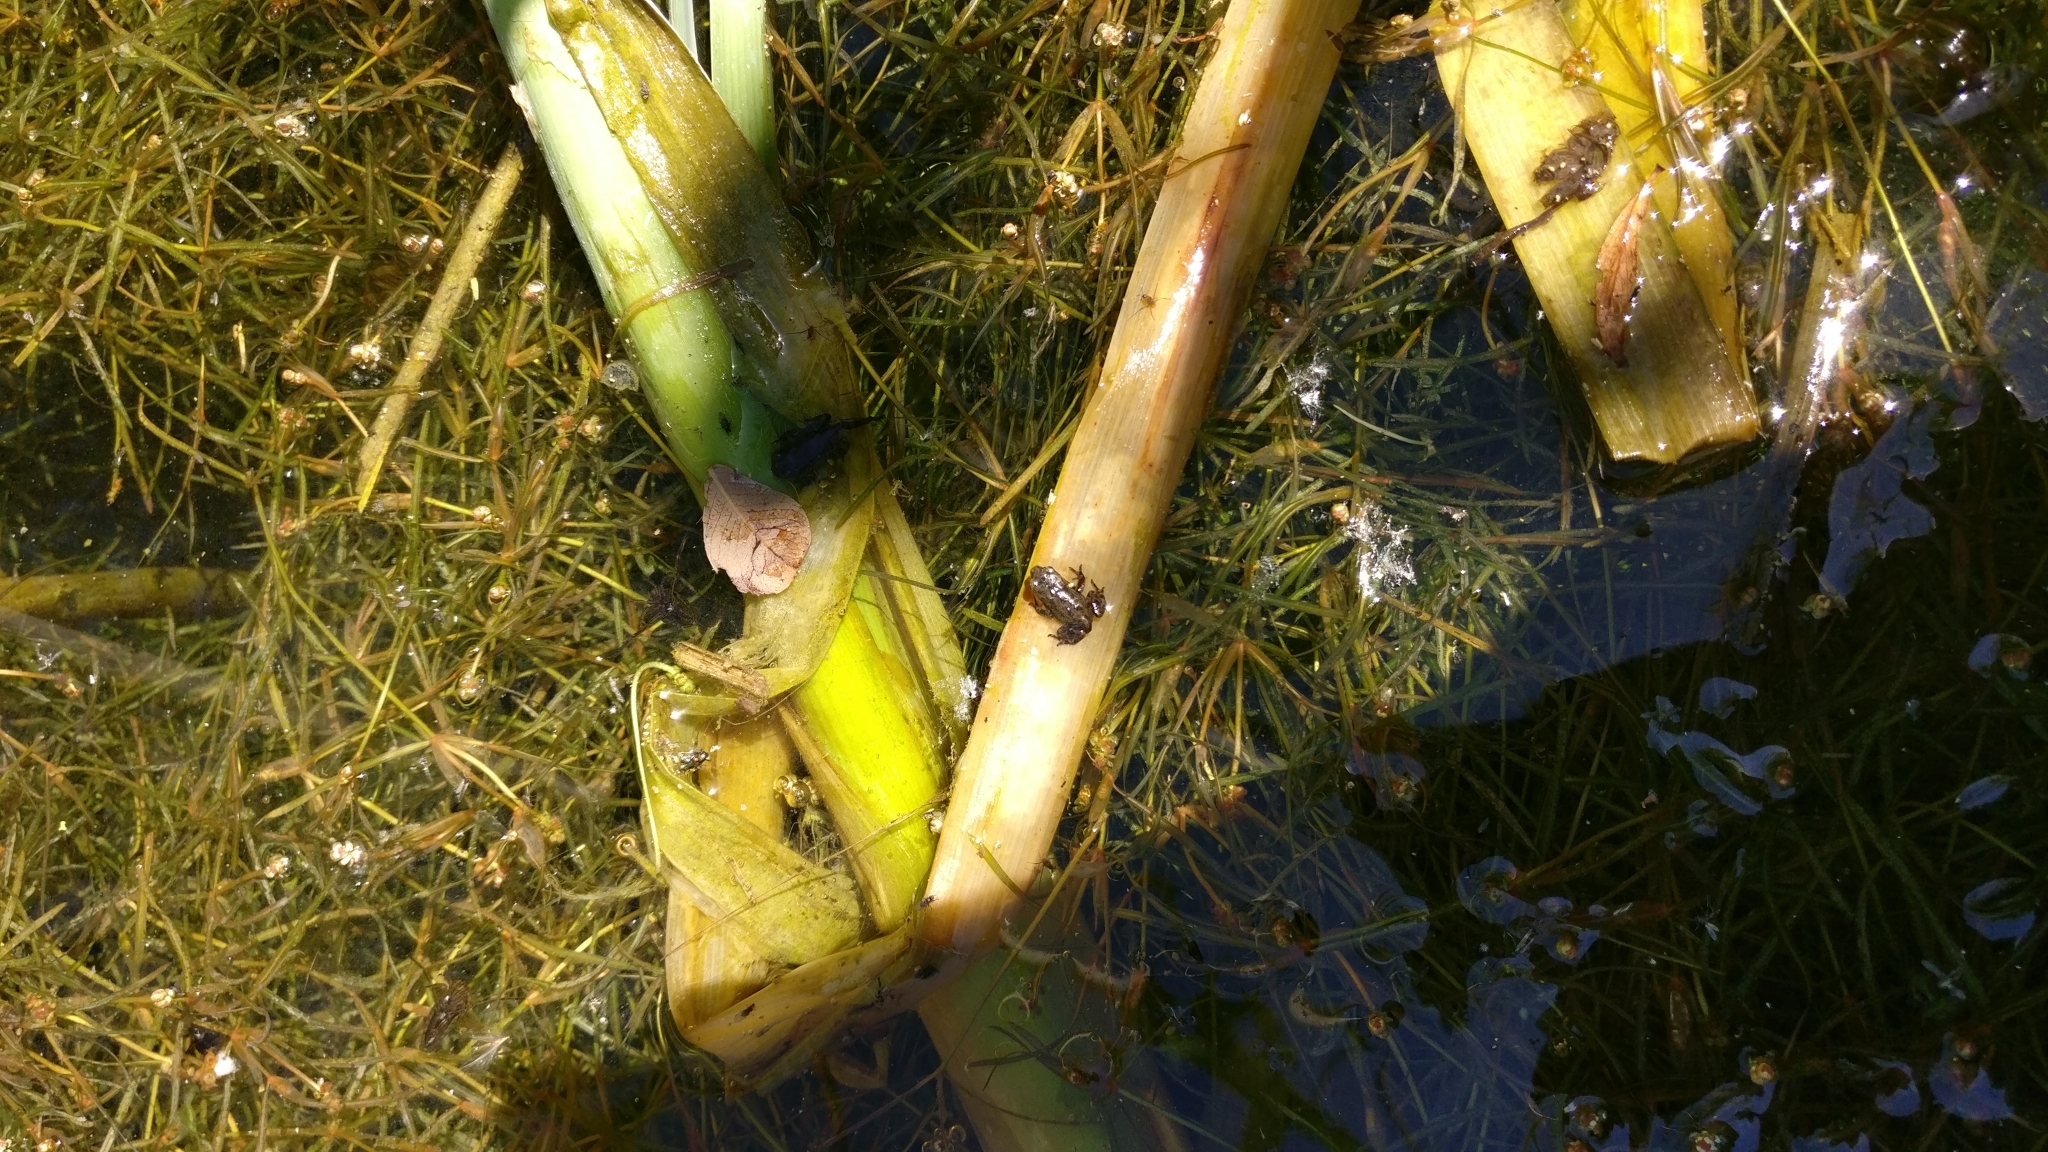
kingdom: Animalia
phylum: Chordata
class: Amphibia
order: Anura
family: Bufonidae
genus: Bufo
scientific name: Bufo bufo
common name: Common toad
